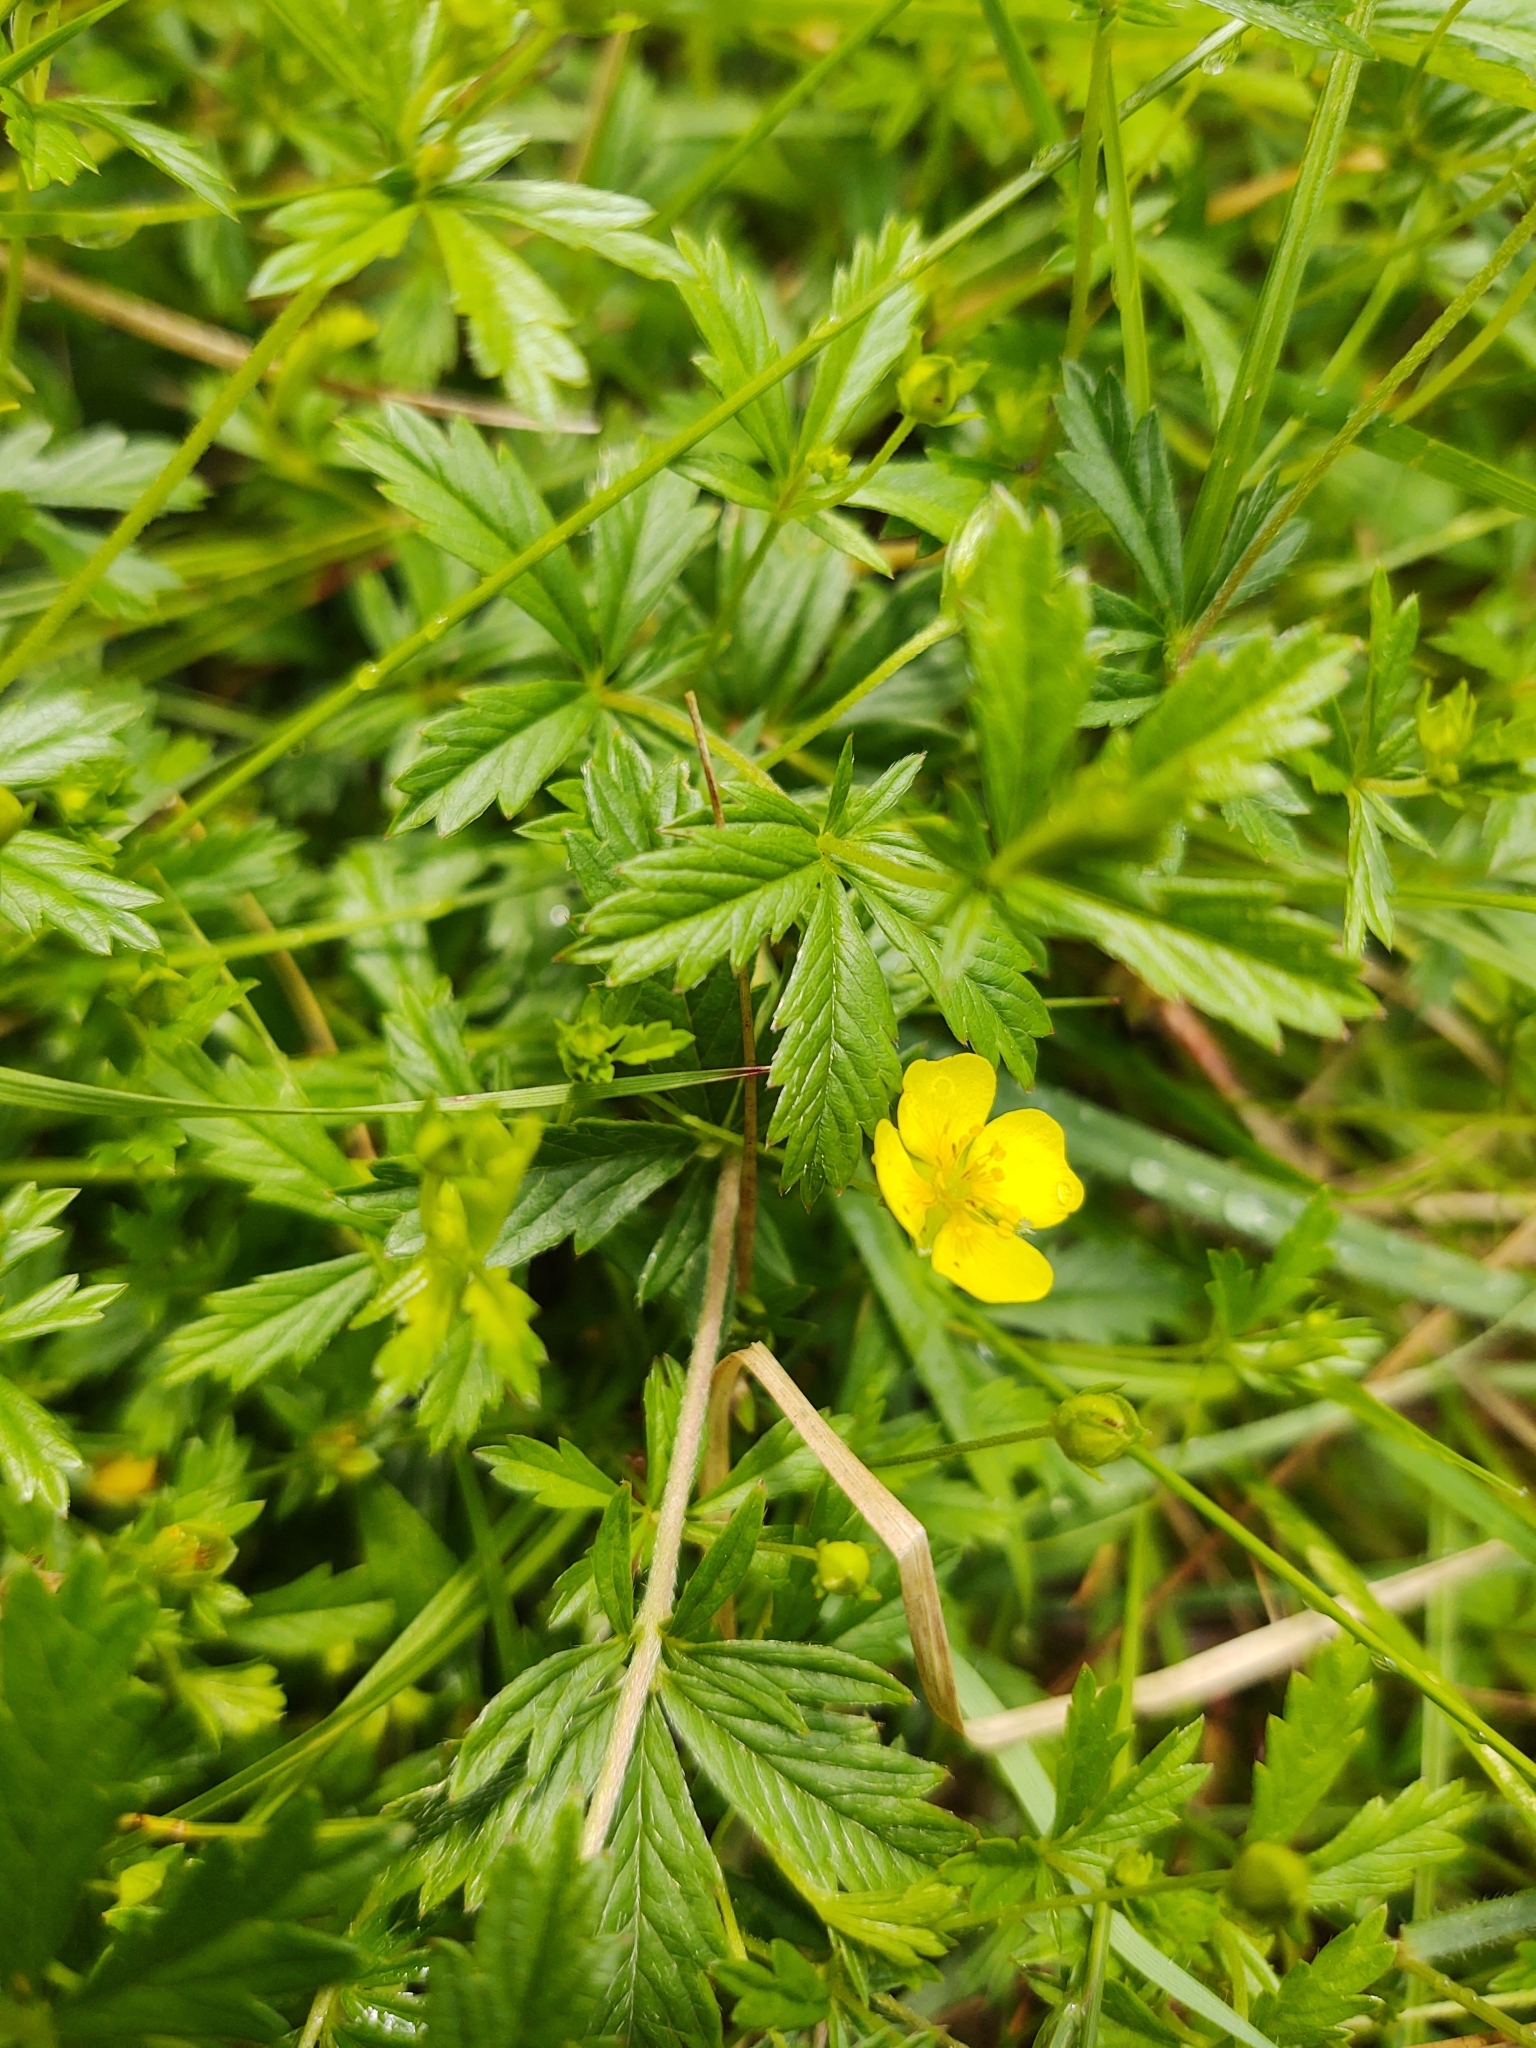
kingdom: Plantae
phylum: Tracheophyta
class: Magnoliopsida
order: Rosales
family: Rosaceae
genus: Potentilla
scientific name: Potentilla erecta
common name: Tormentil
